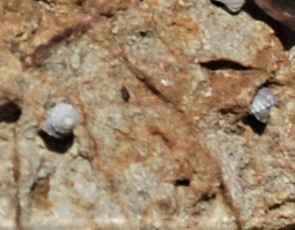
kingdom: Animalia
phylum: Mollusca
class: Gastropoda
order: Littorinimorpha
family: Littorinidae
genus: Nodilittorina
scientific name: Nodilittorina pyramidalis
